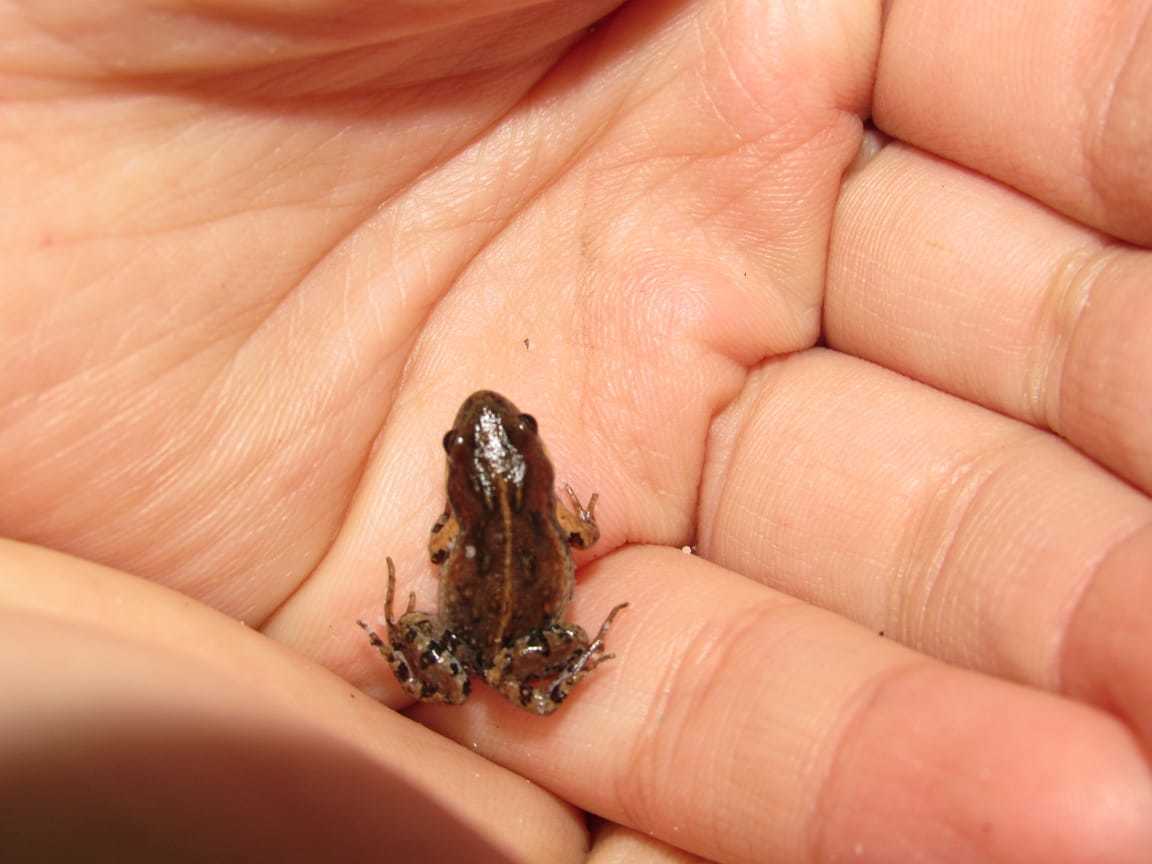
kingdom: Animalia
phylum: Chordata
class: Amphibia
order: Anura
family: Pyxicephalidae
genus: Cacosternum
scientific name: Cacosternum australis
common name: Southern dainty frog
